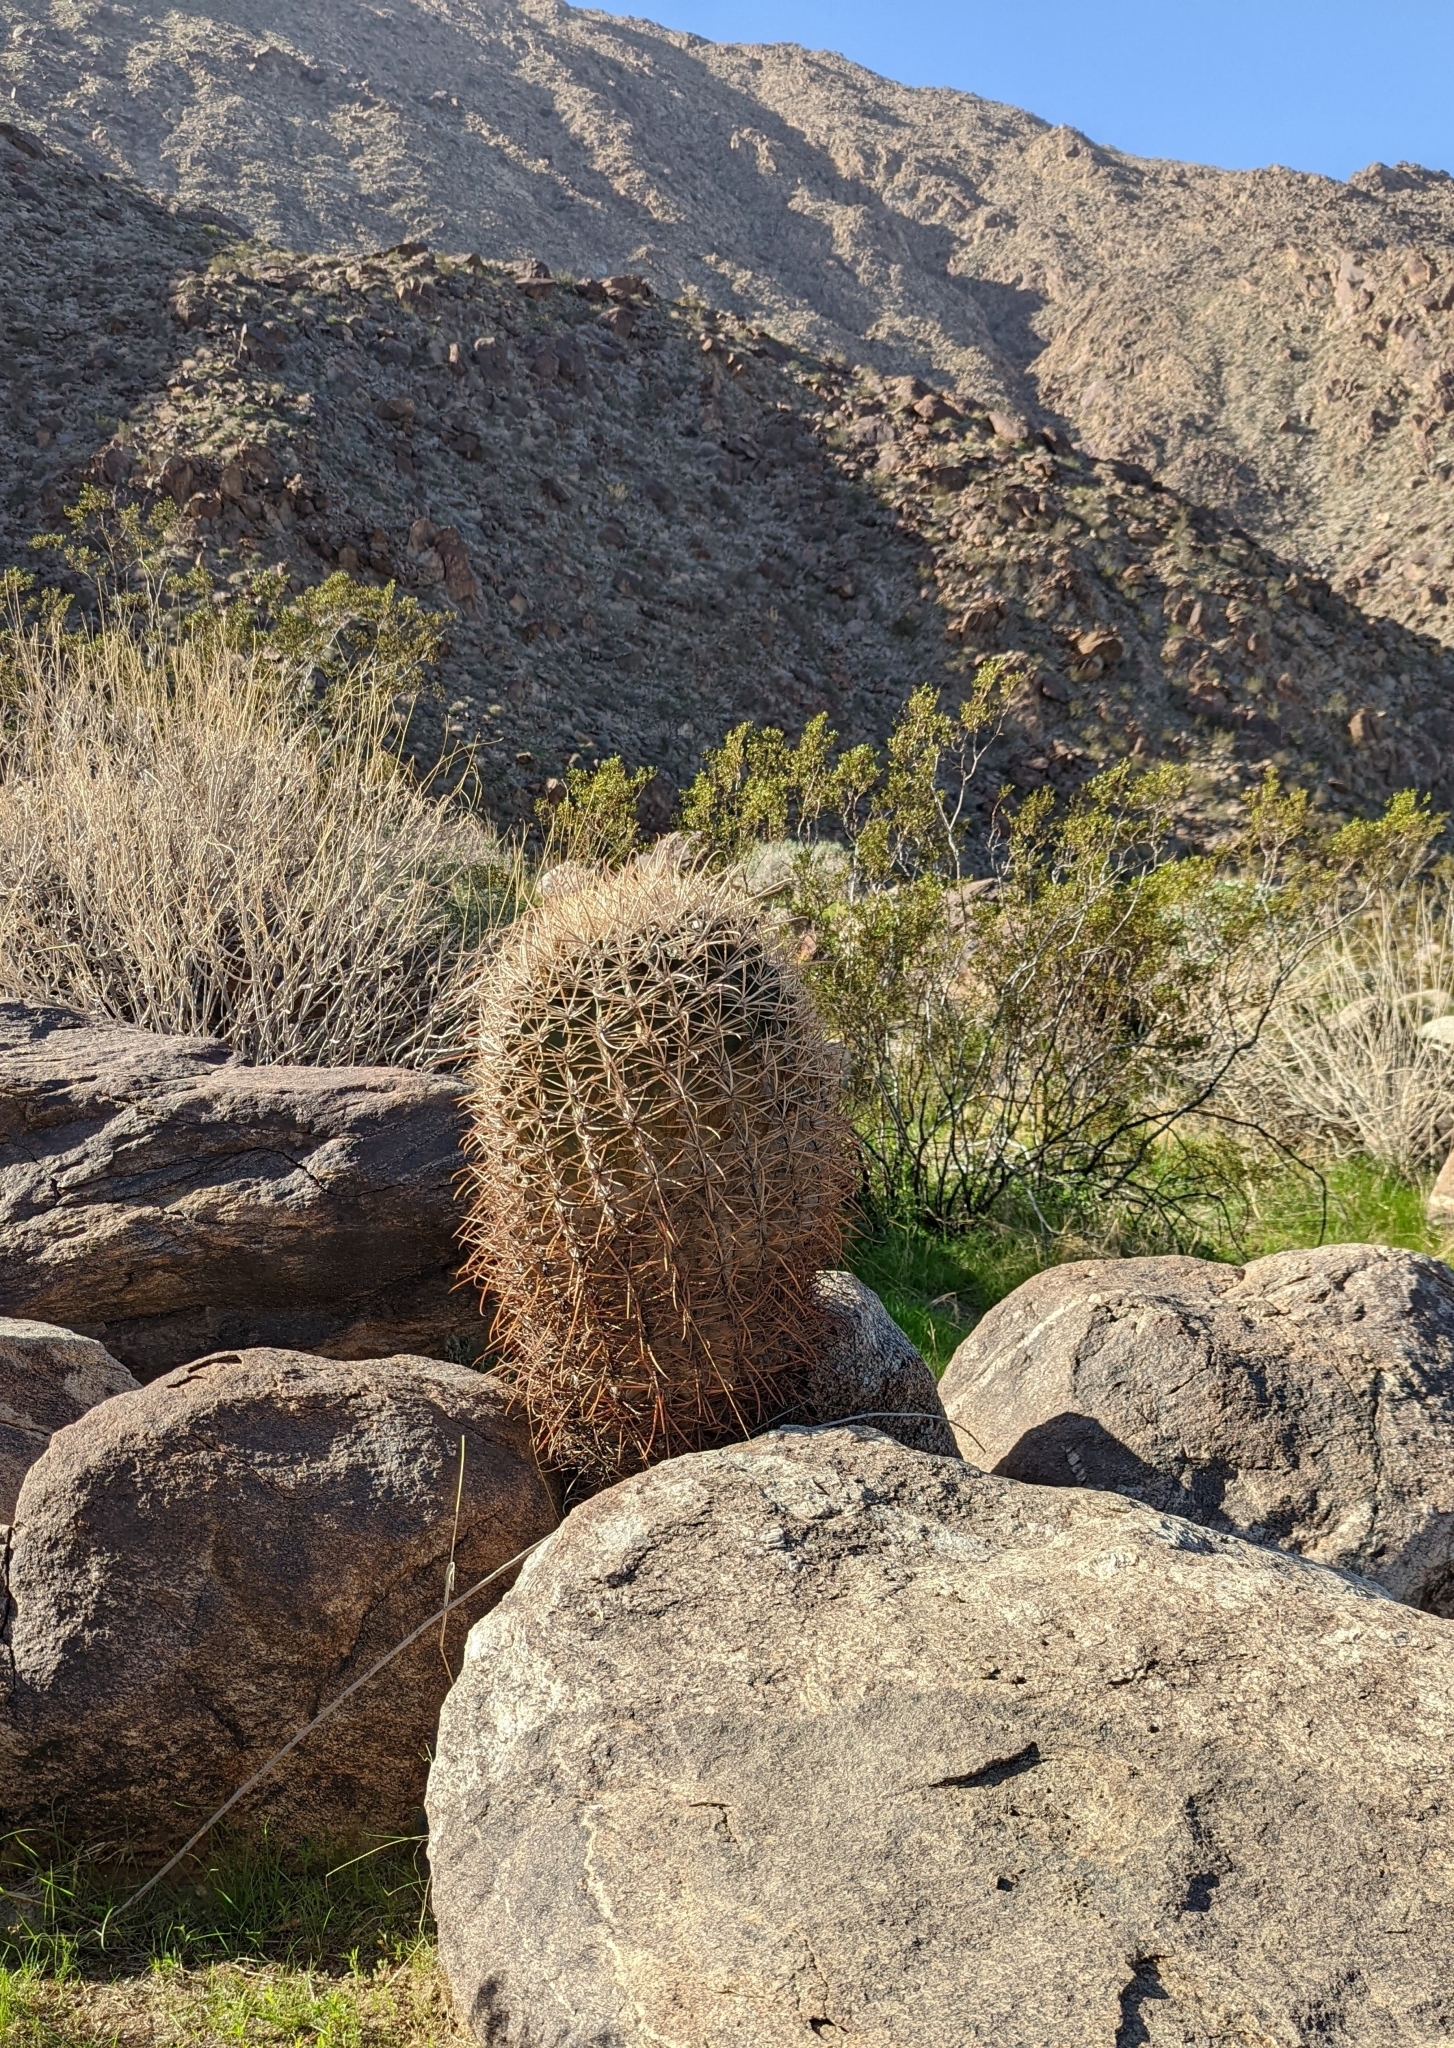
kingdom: Plantae
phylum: Tracheophyta
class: Magnoliopsida
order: Caryophyllales
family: Cactaceae
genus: Ferocactus
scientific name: Ferocactus cylindraceus
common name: California barrel cactus
